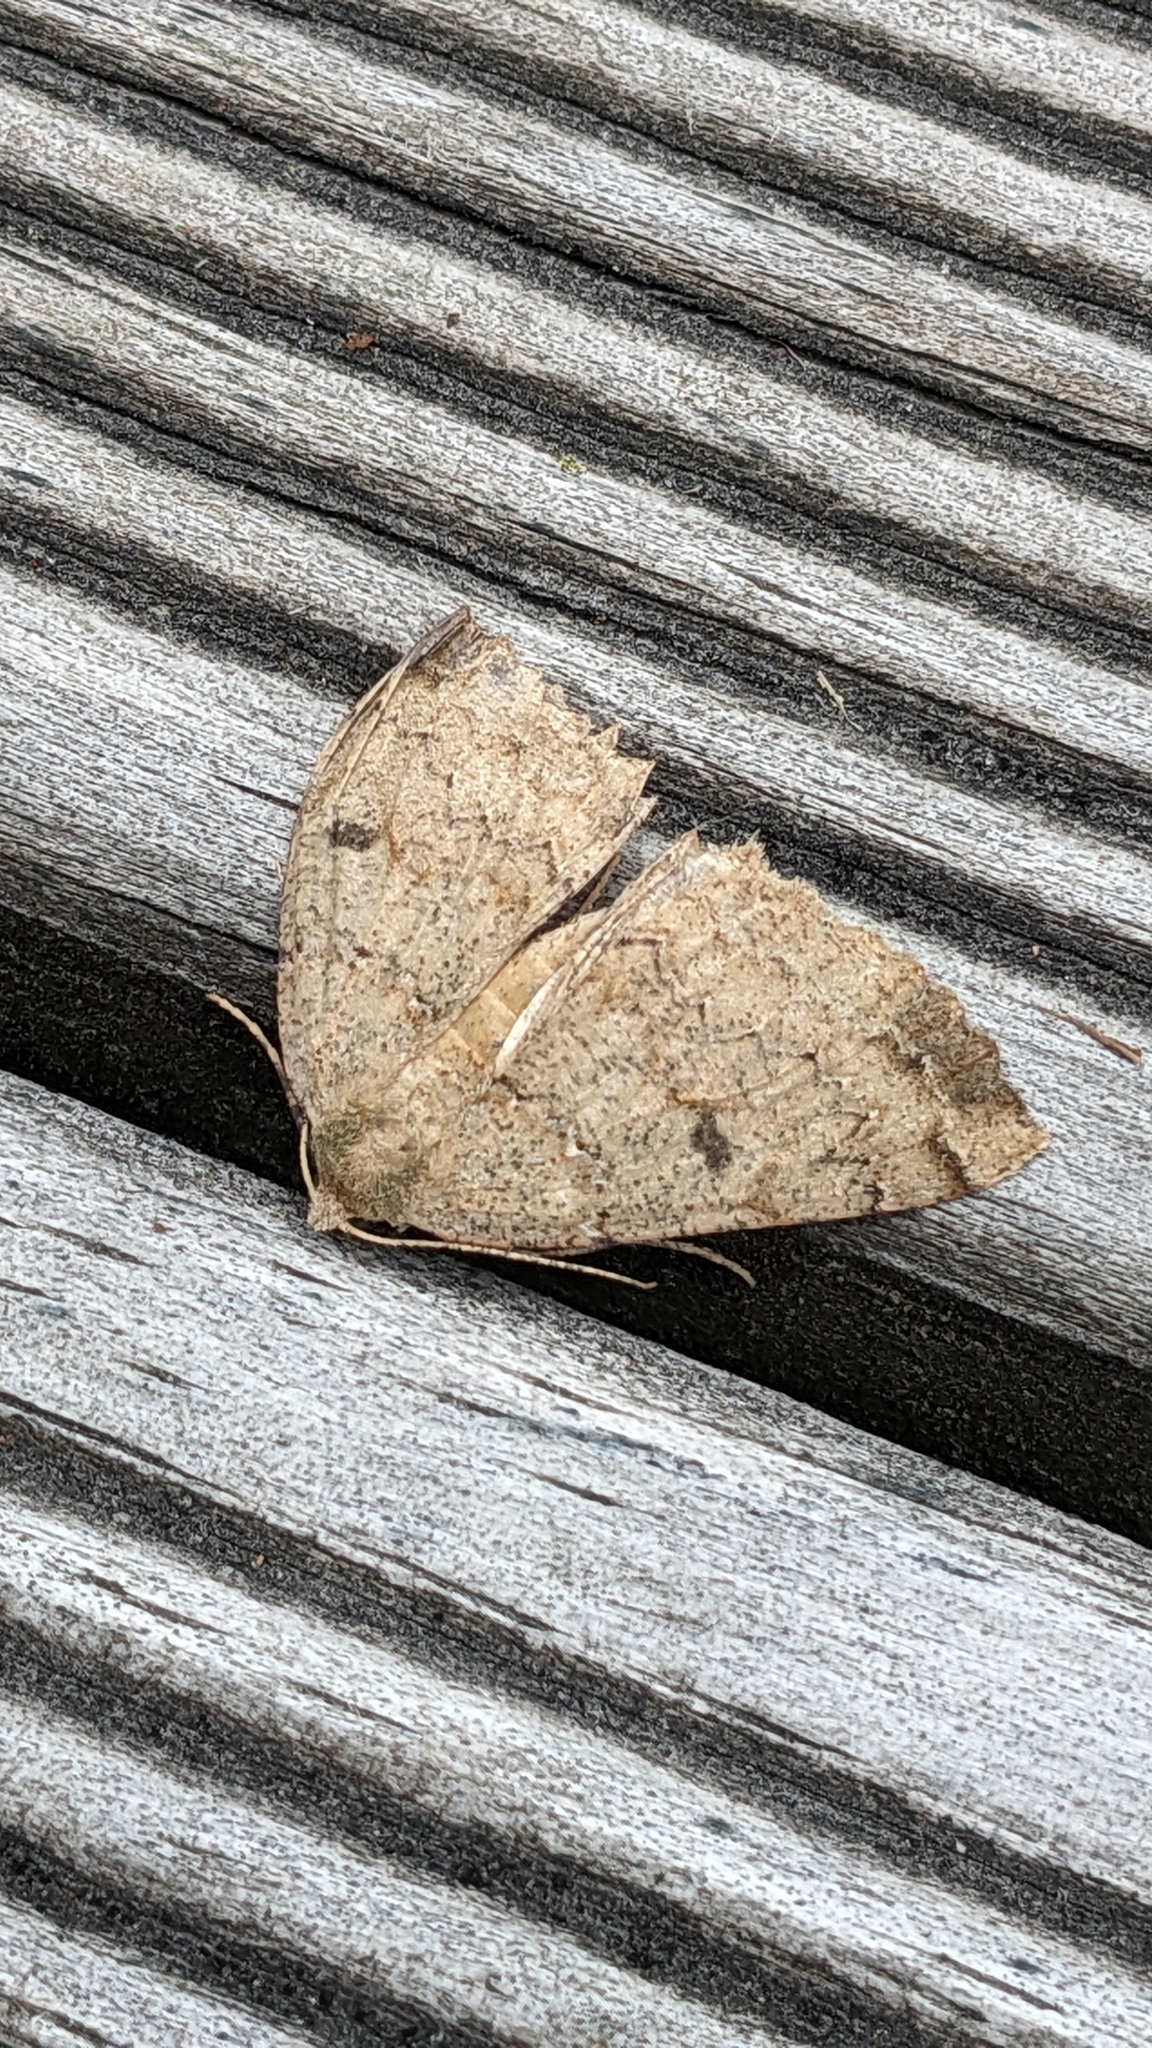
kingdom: Animalia
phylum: Arthropoda
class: Insecta
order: Lepidoptera
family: Geometridae
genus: Cleora
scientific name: Cleora scriptaria
